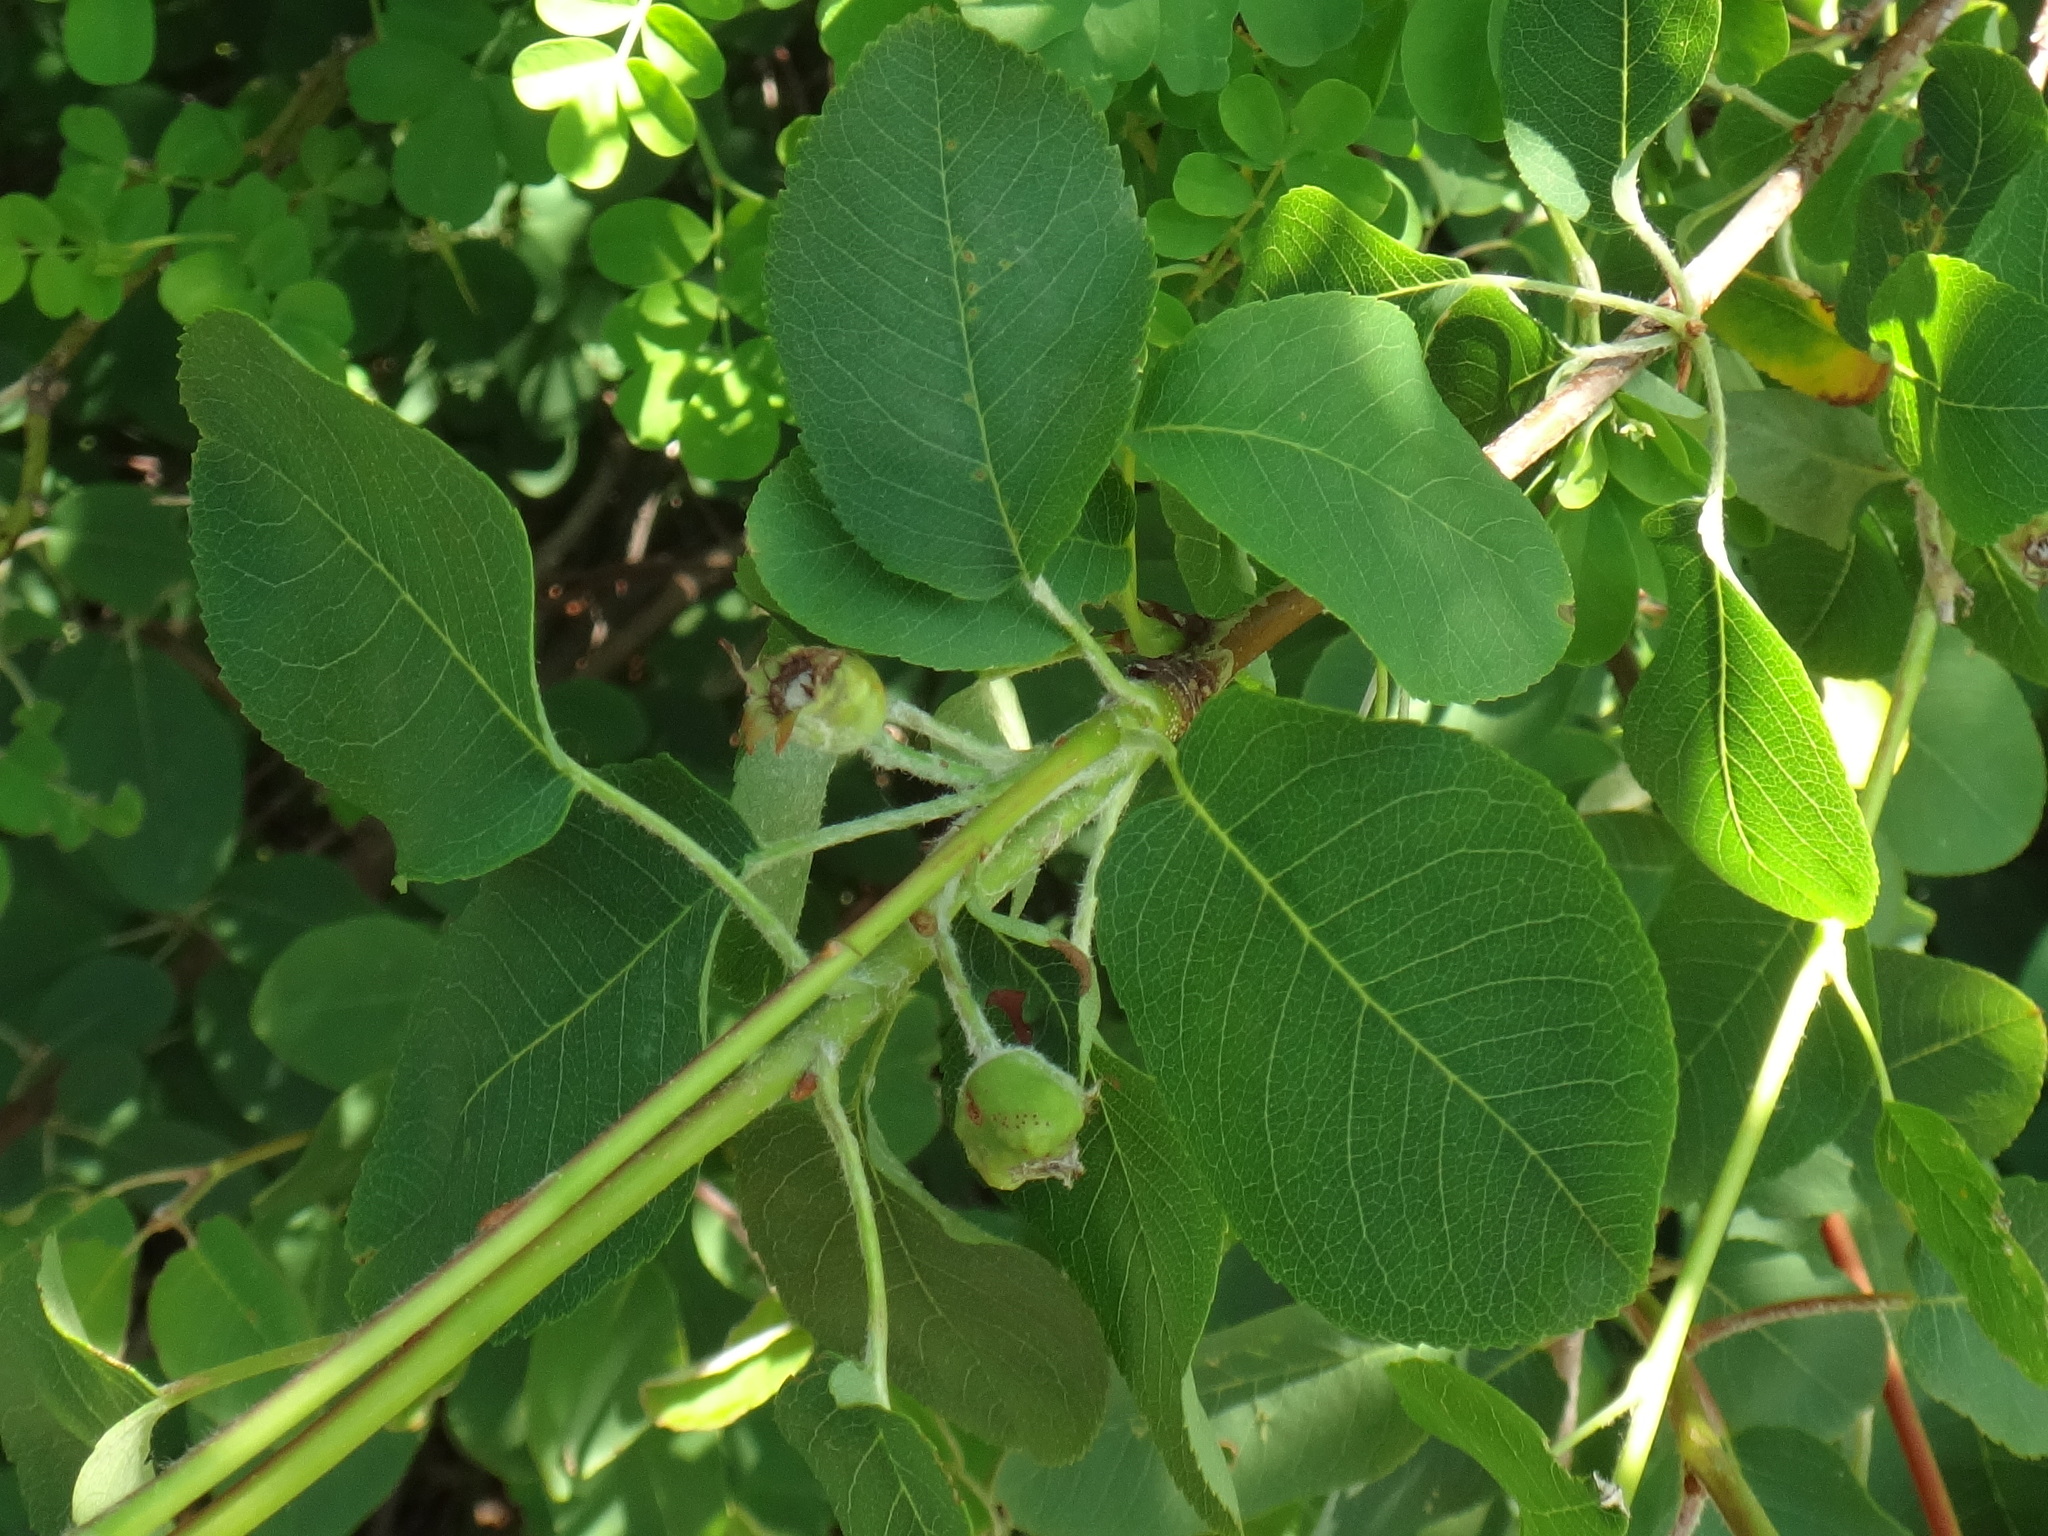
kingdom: Plantae
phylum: Tracheophyta
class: Magnoliopsida
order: Rosales
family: Rosaceae
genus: Amelanchier
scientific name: Amelanchier ovalis
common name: Serviceberry
